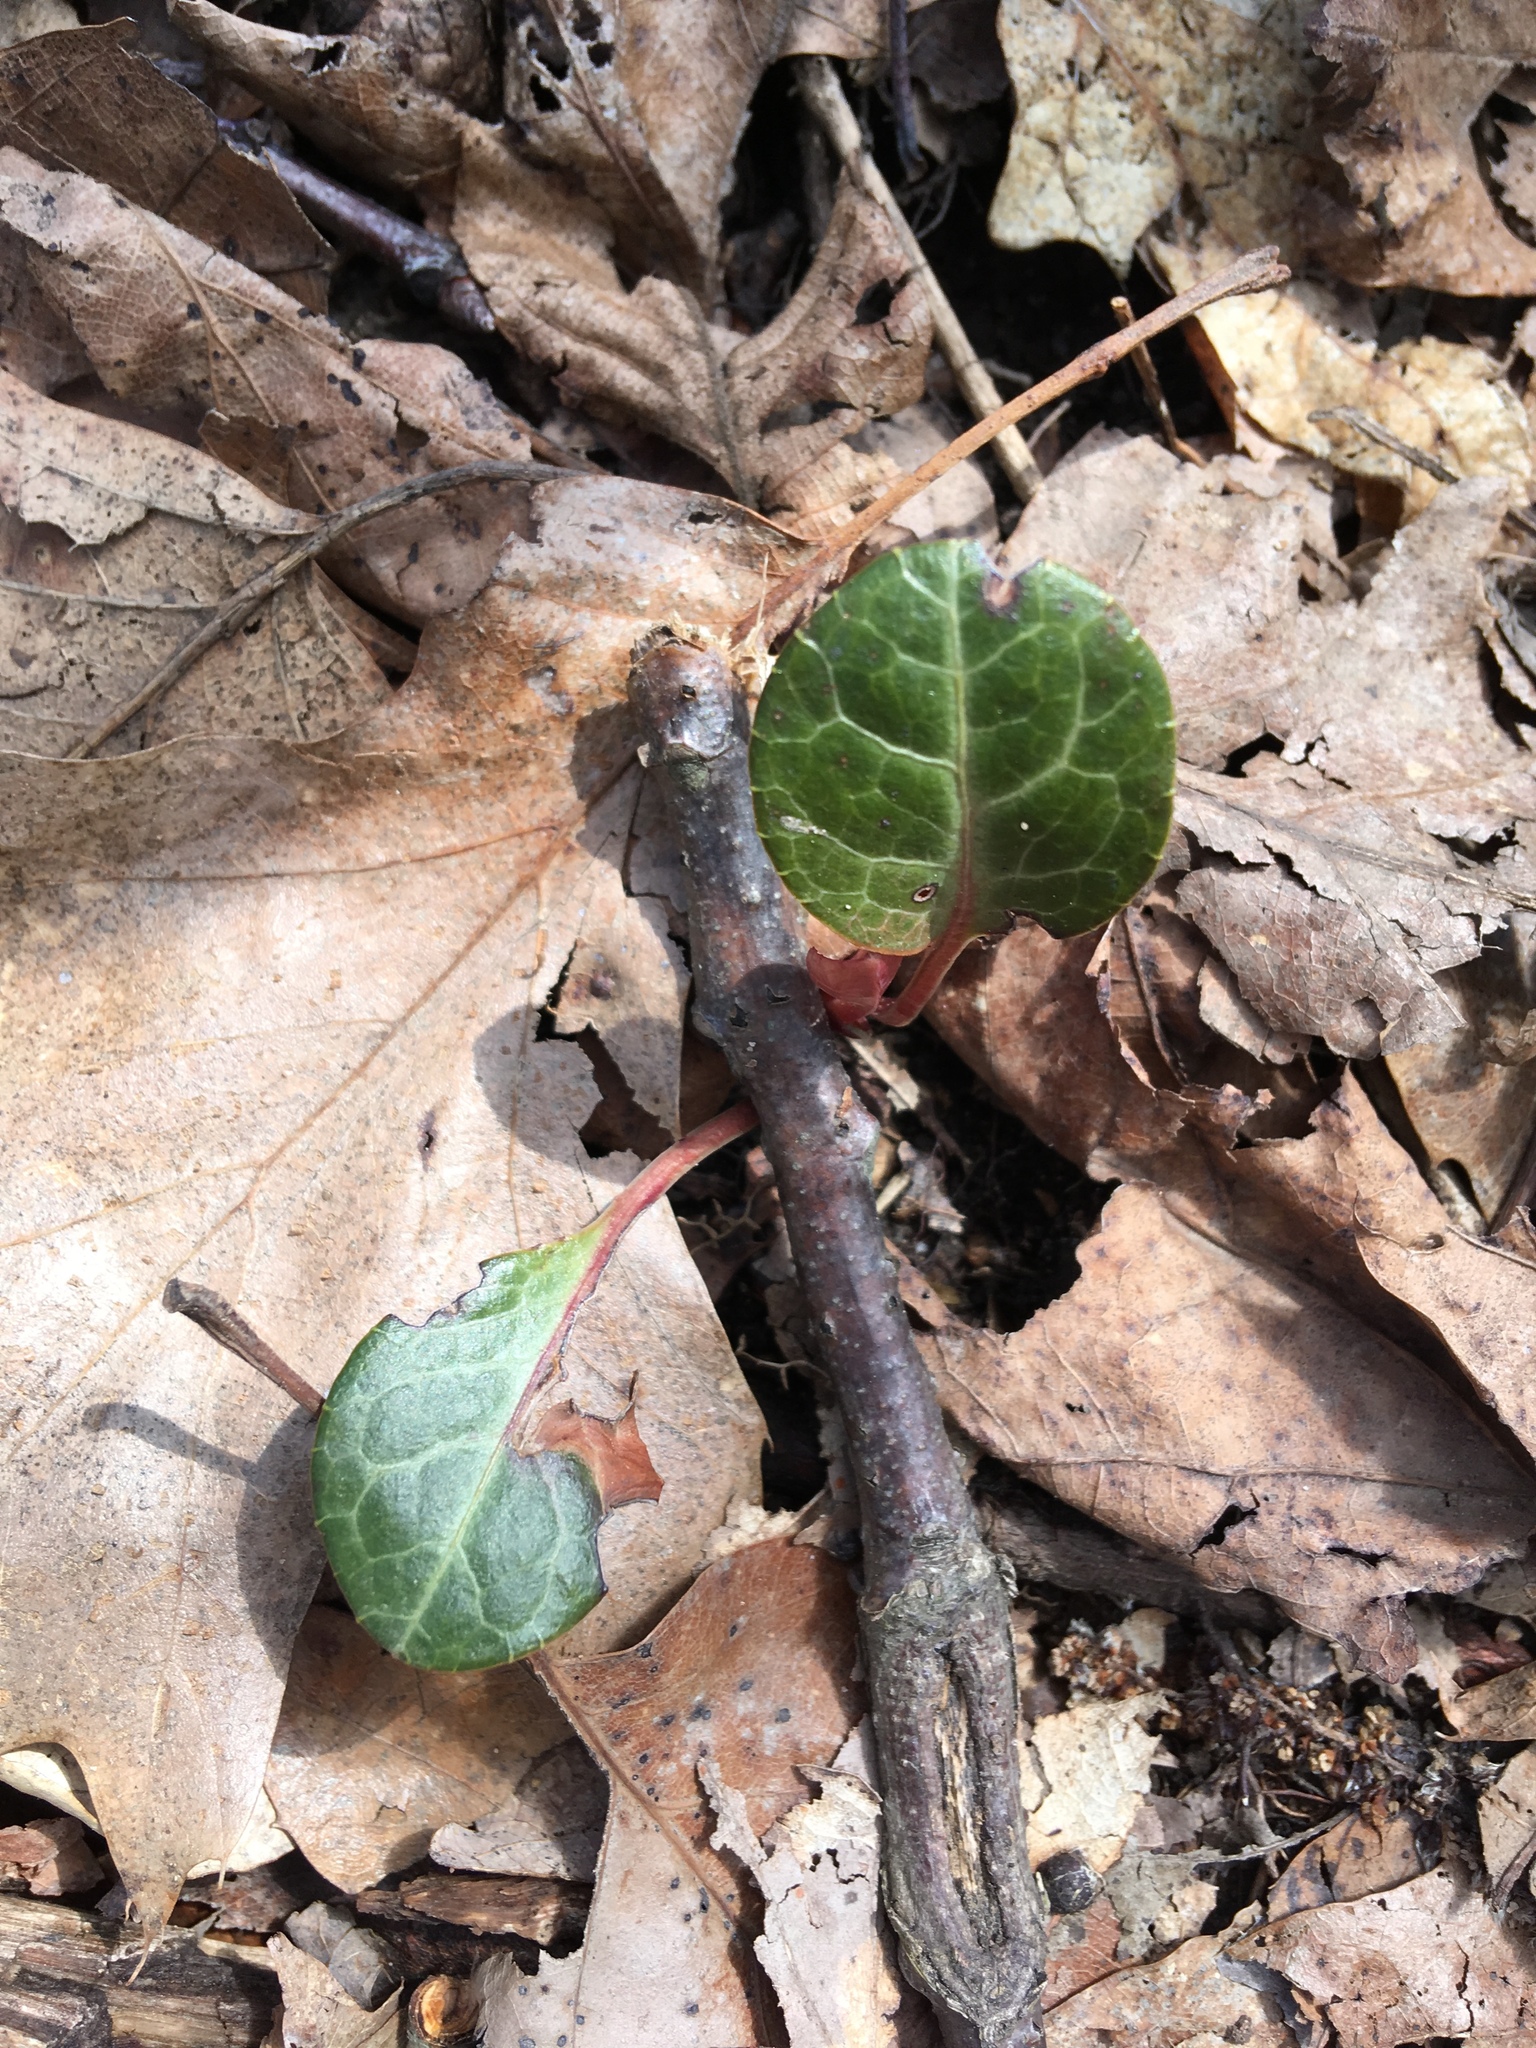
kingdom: Plantae
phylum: Tracheophyta
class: Magnoliopsida
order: Ericales
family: Ericaceae
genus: Pyrola
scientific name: Pyrola americana
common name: American wintergreen
